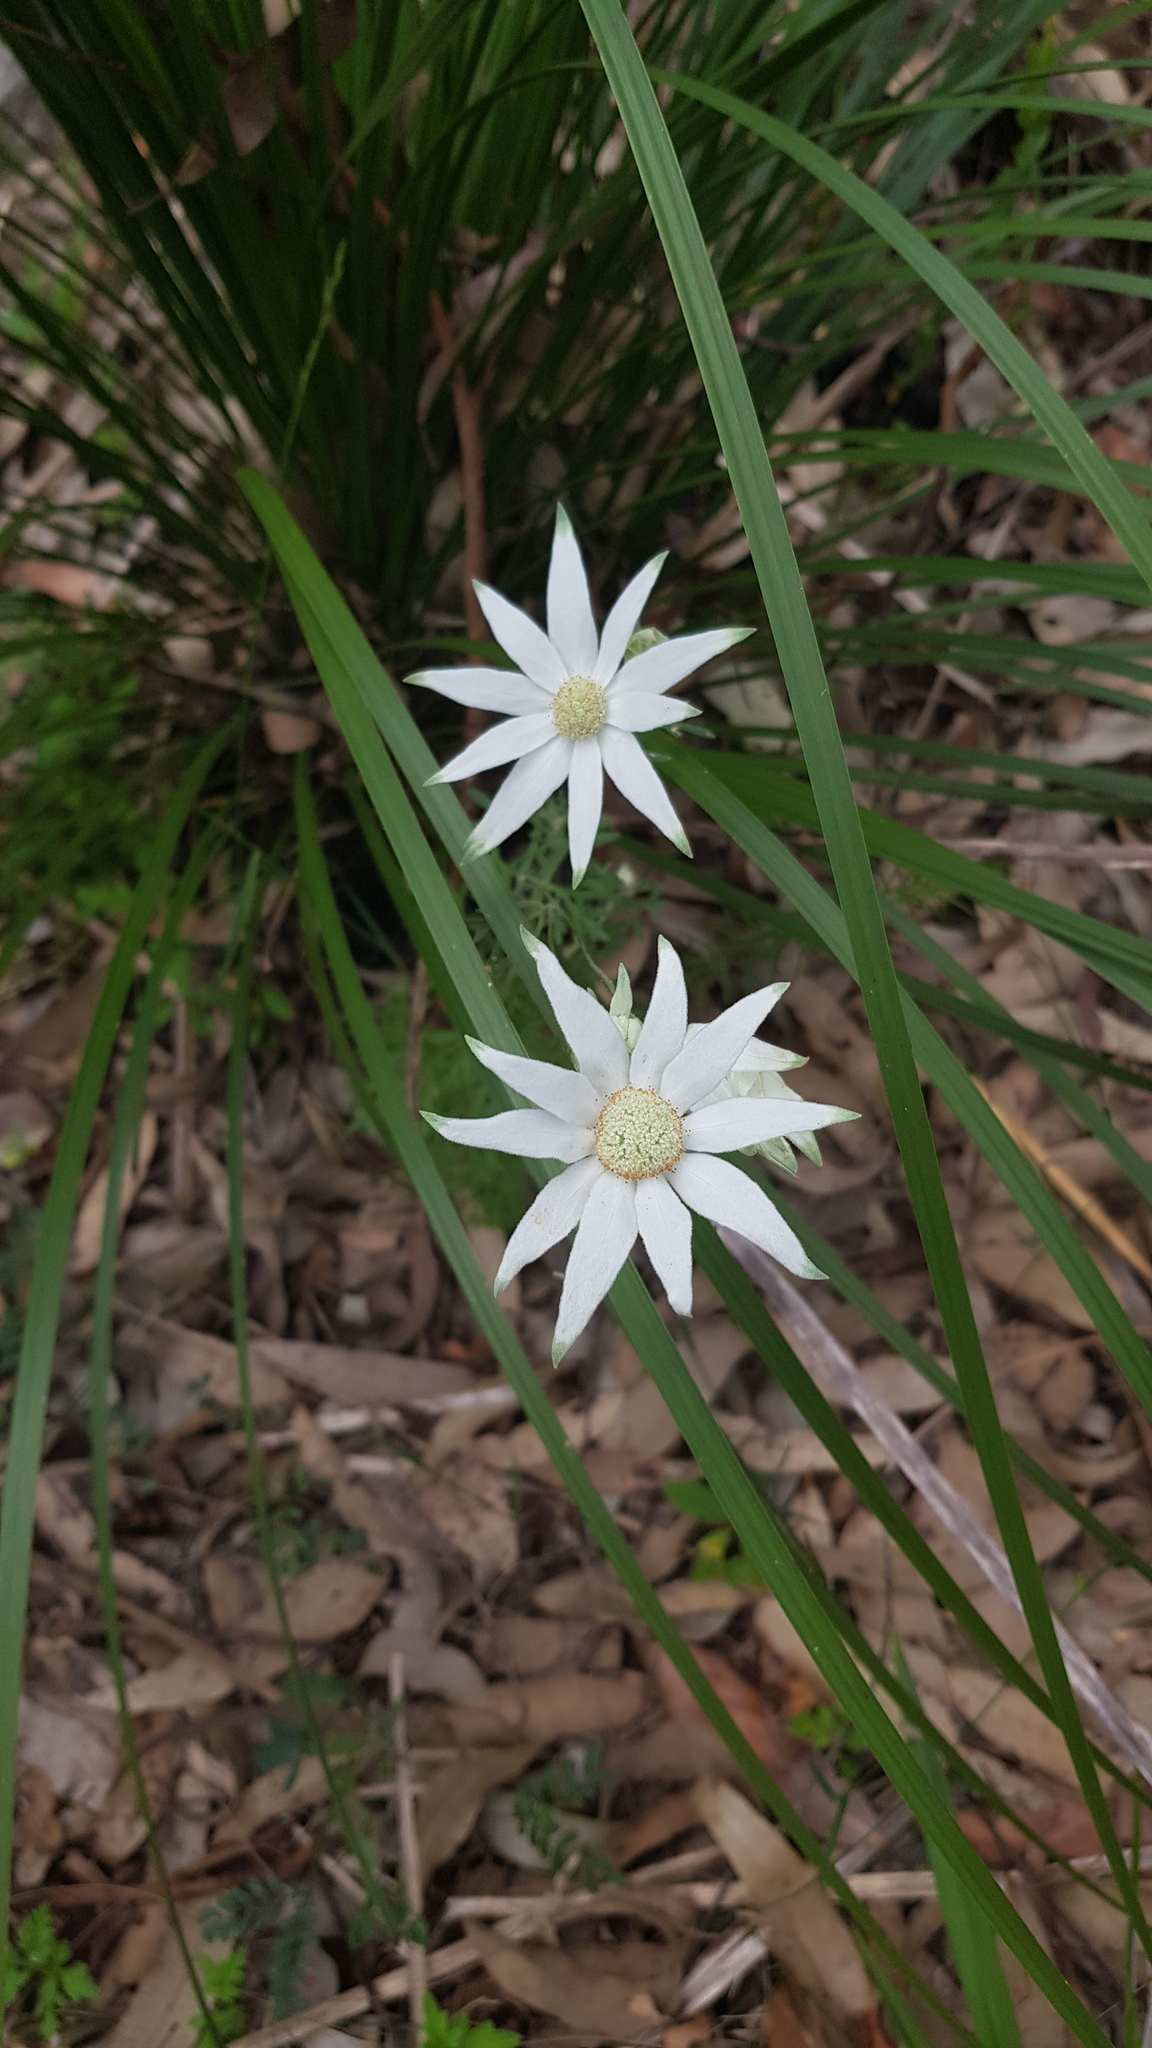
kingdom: Plantae
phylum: Tracheophyta
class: Magnoliopsida
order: Apiales
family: Apiaceae
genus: Actinotus
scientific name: Actinotus helianthi
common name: Flannel-flower
